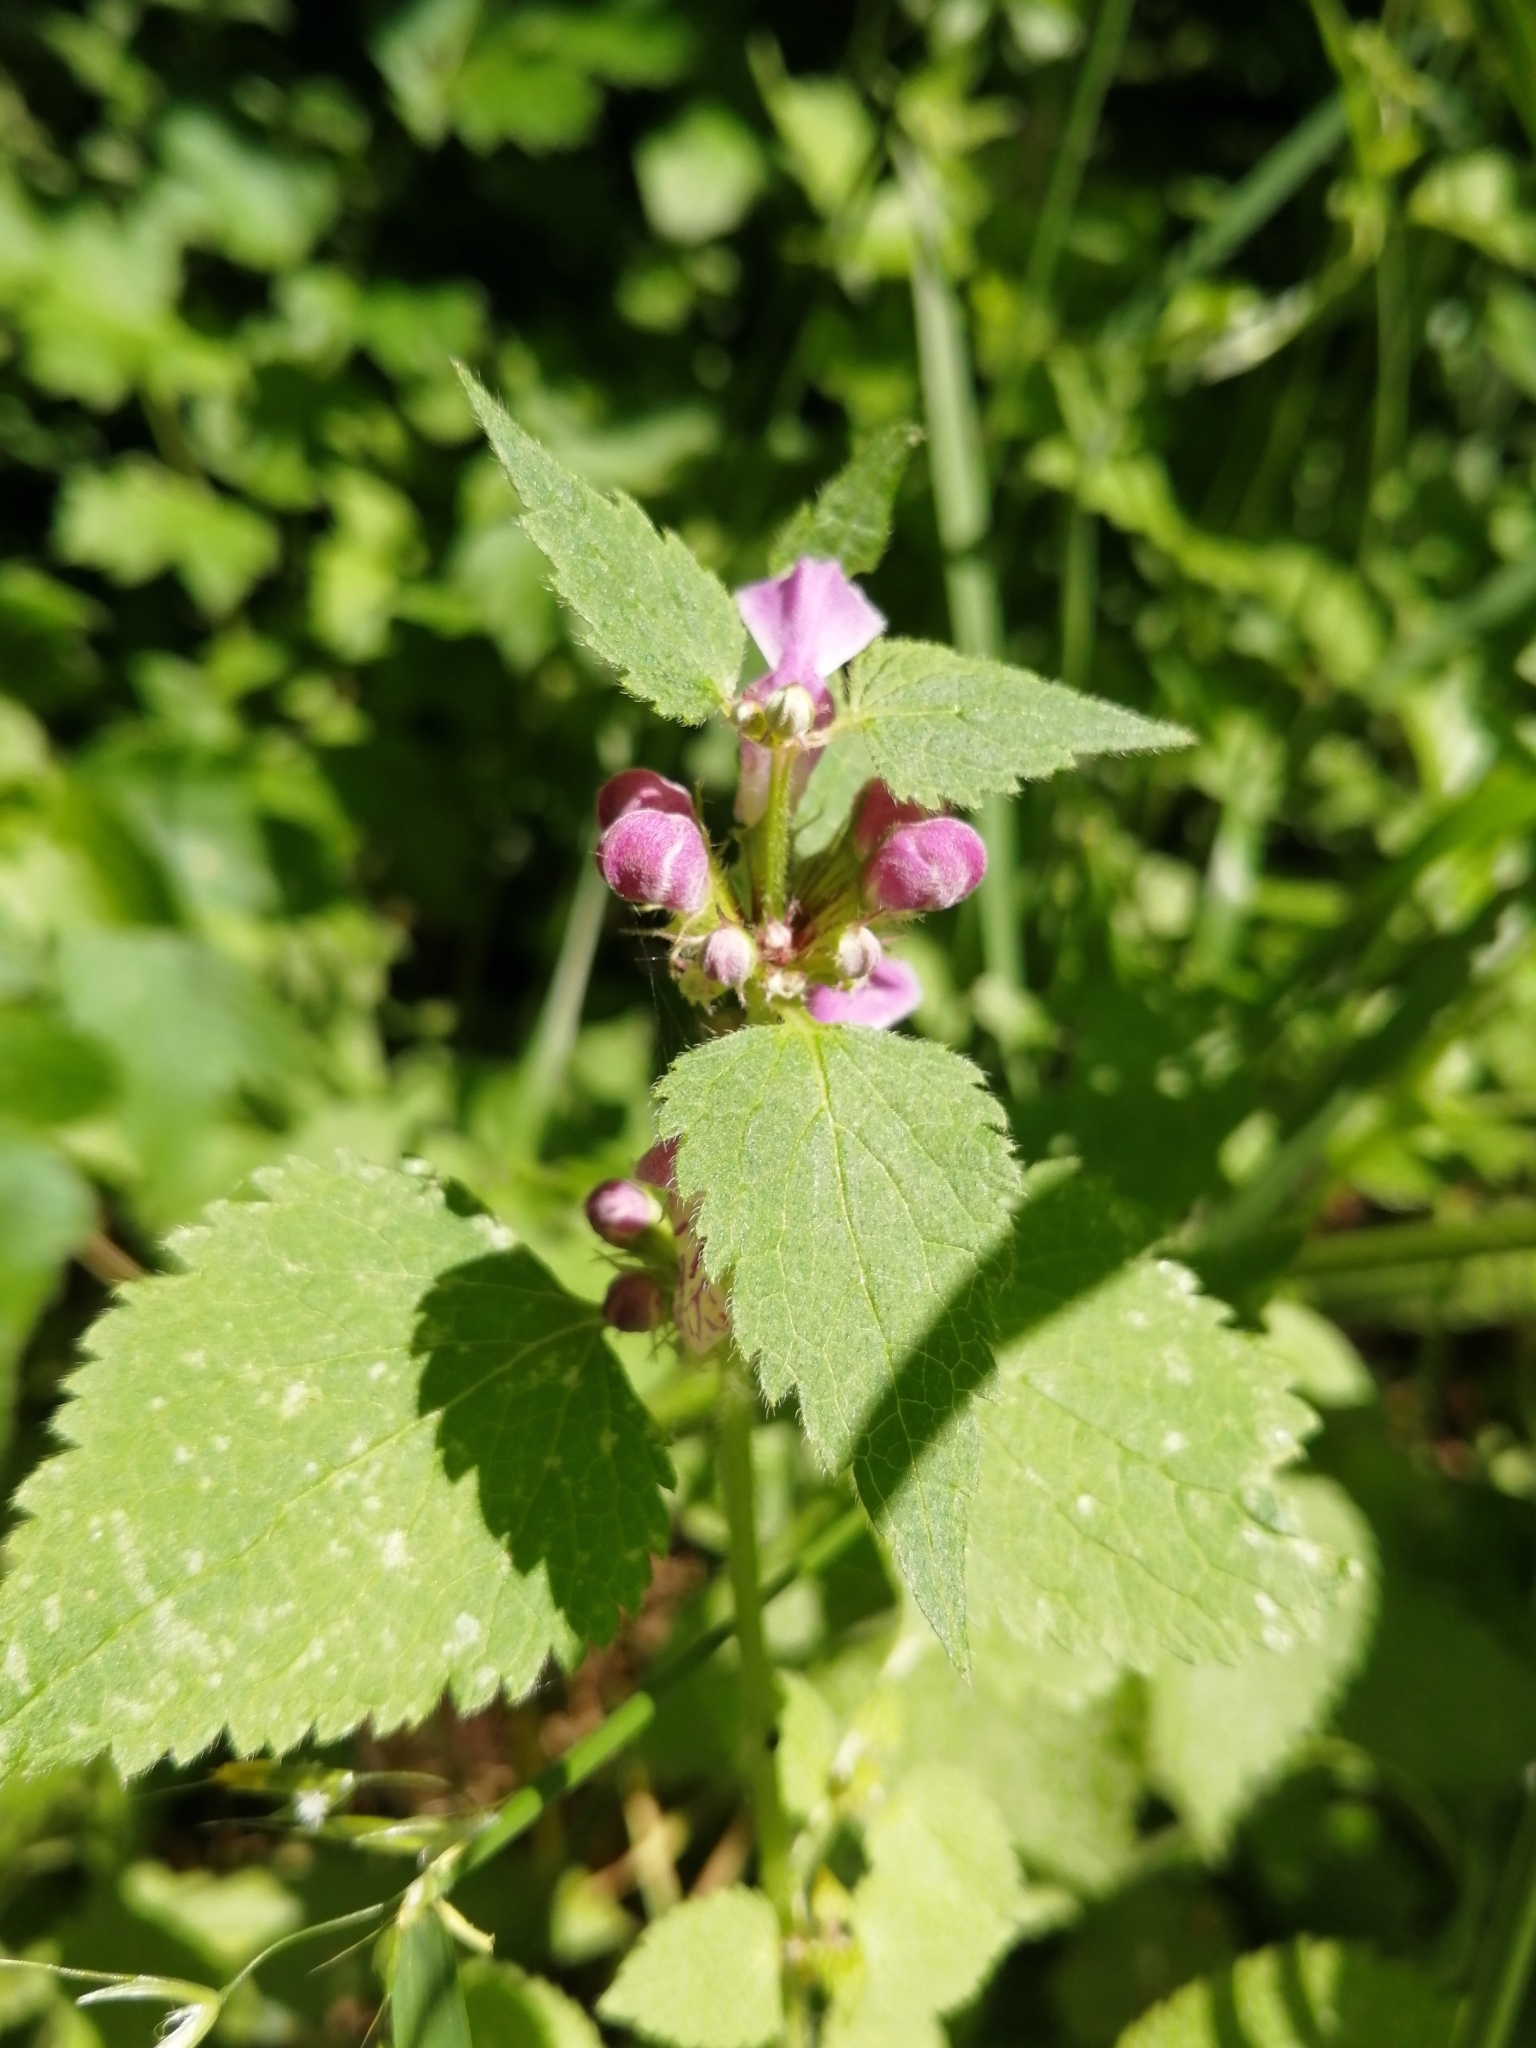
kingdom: Plantae
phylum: Tracheophyta
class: Magnoliopsida
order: Lamiales
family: Lamiaceae
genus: Lamium
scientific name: Lamium maculatum
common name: Spotted dead-nettle
